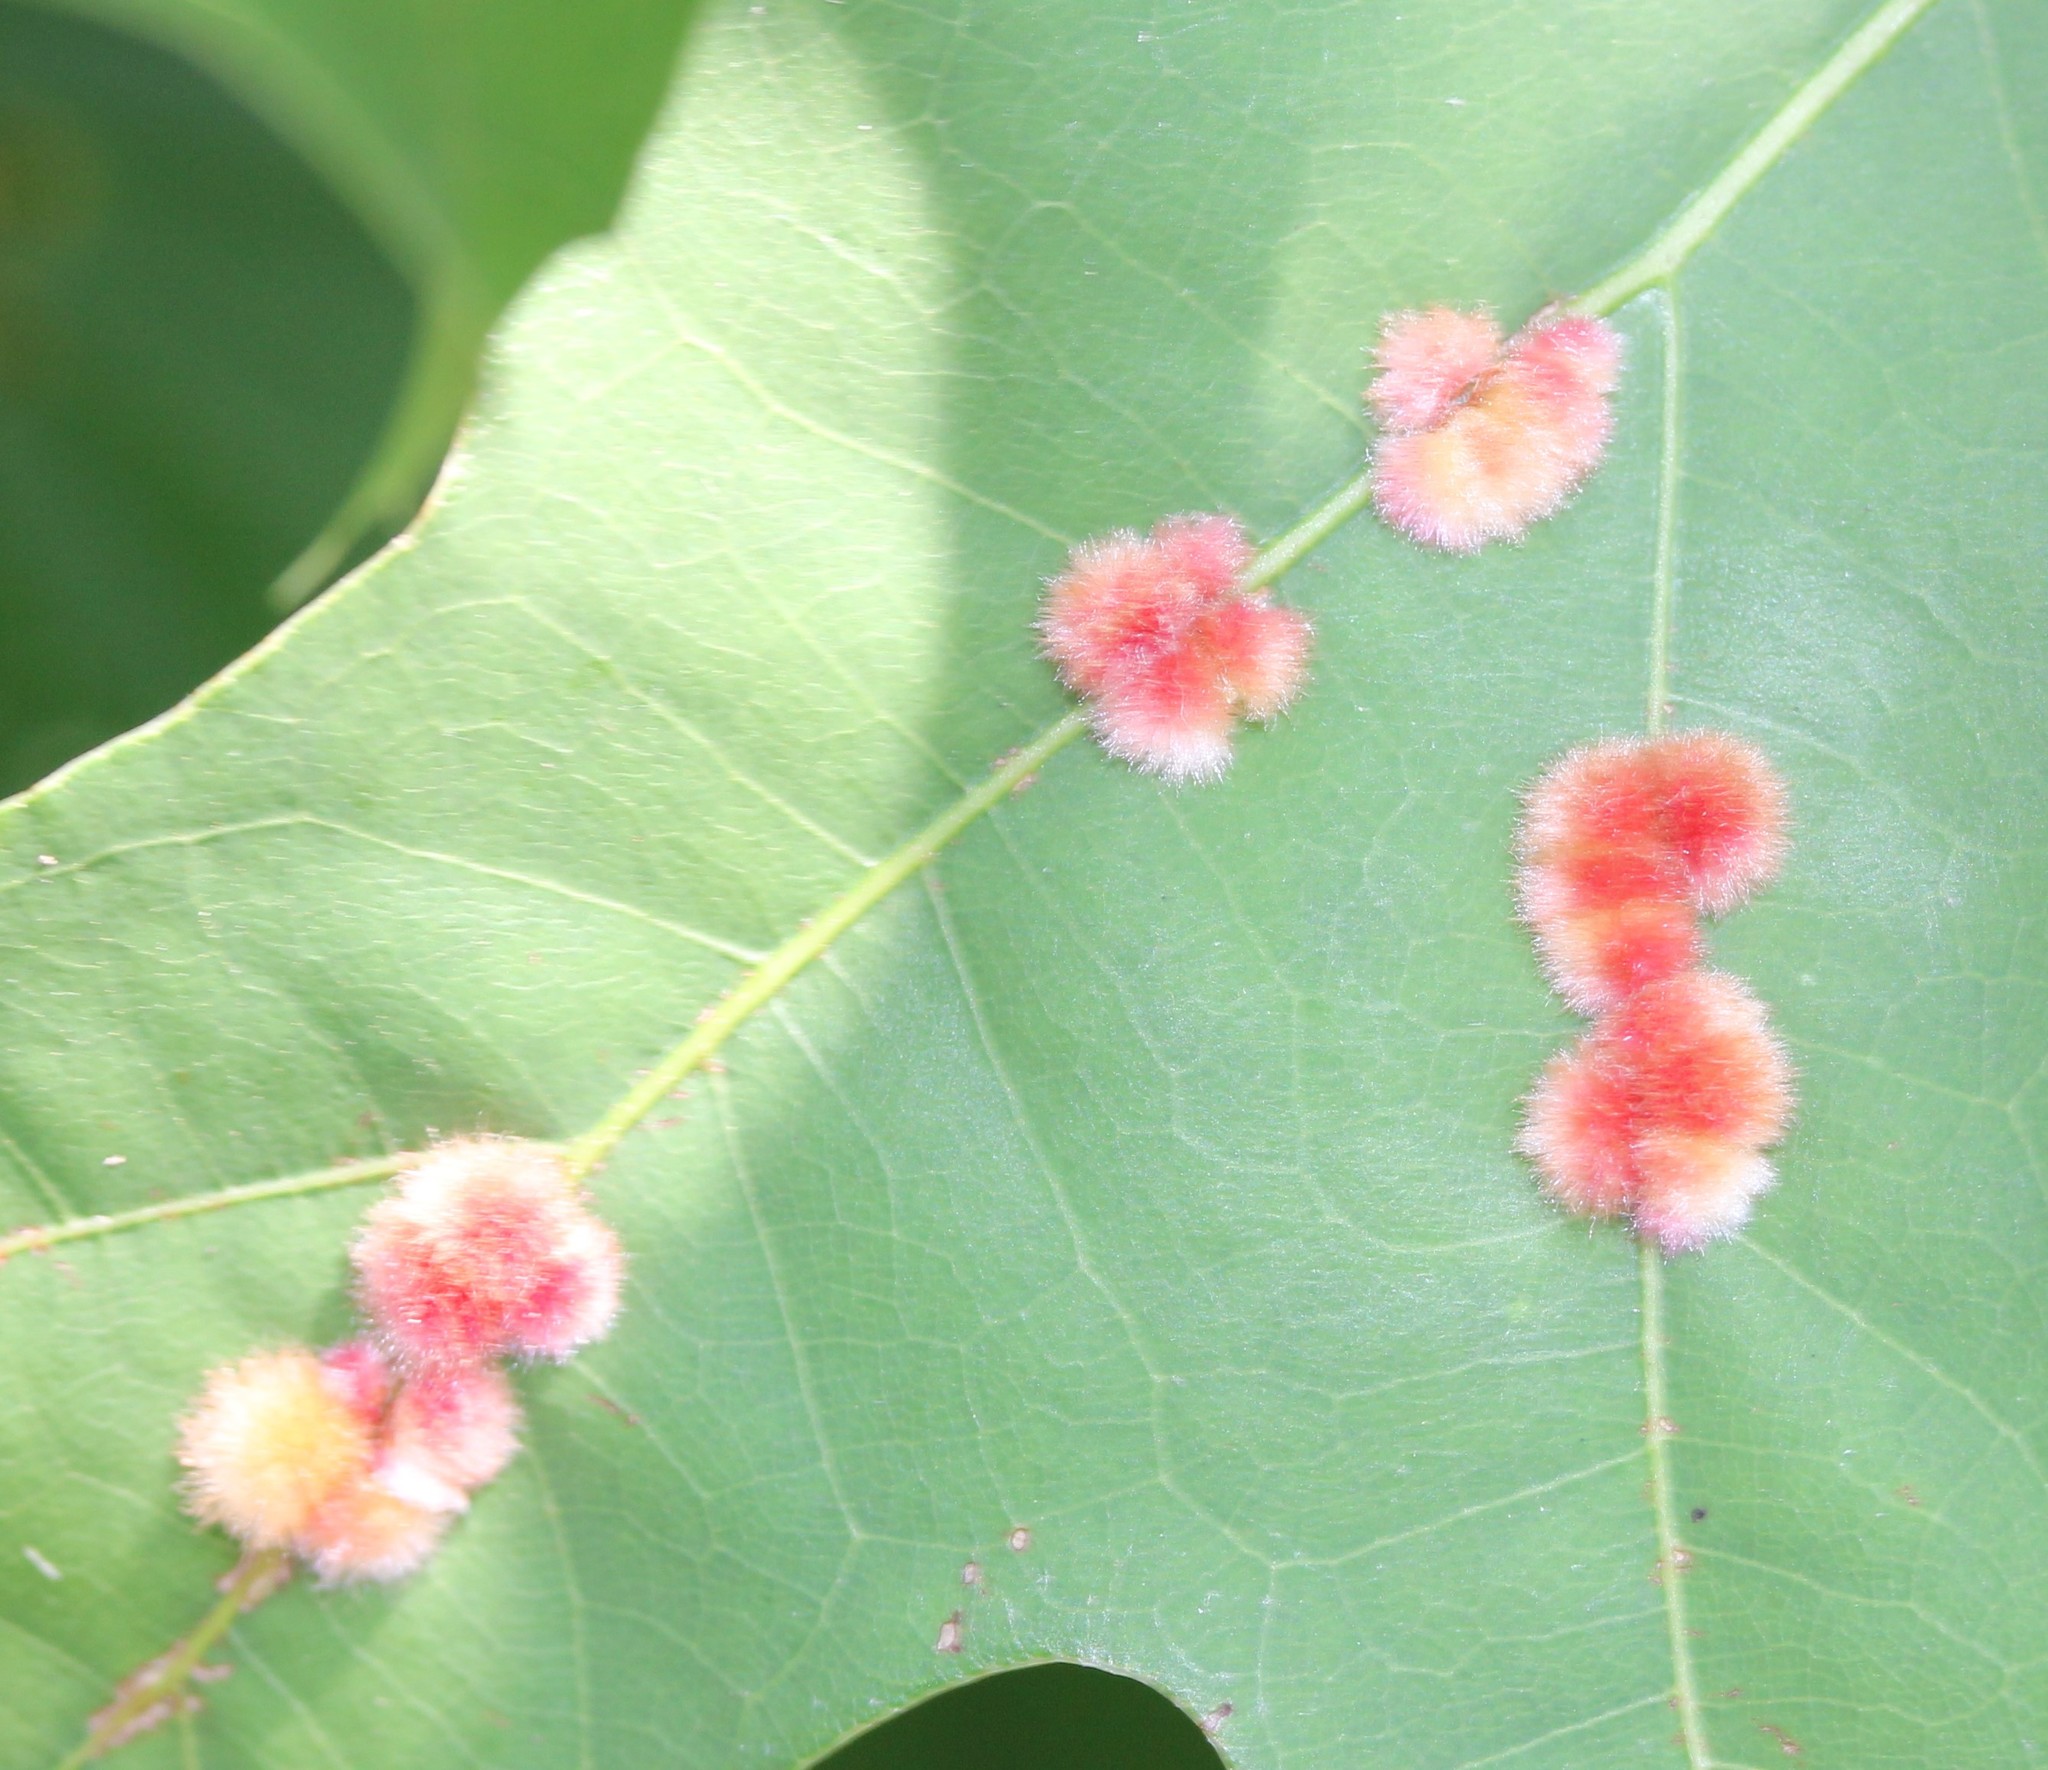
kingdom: Animalia
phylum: Arthropoda
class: Insecta
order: Hymenoptera
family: Cynipidae
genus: Callirhytis
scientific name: Callirhytis
